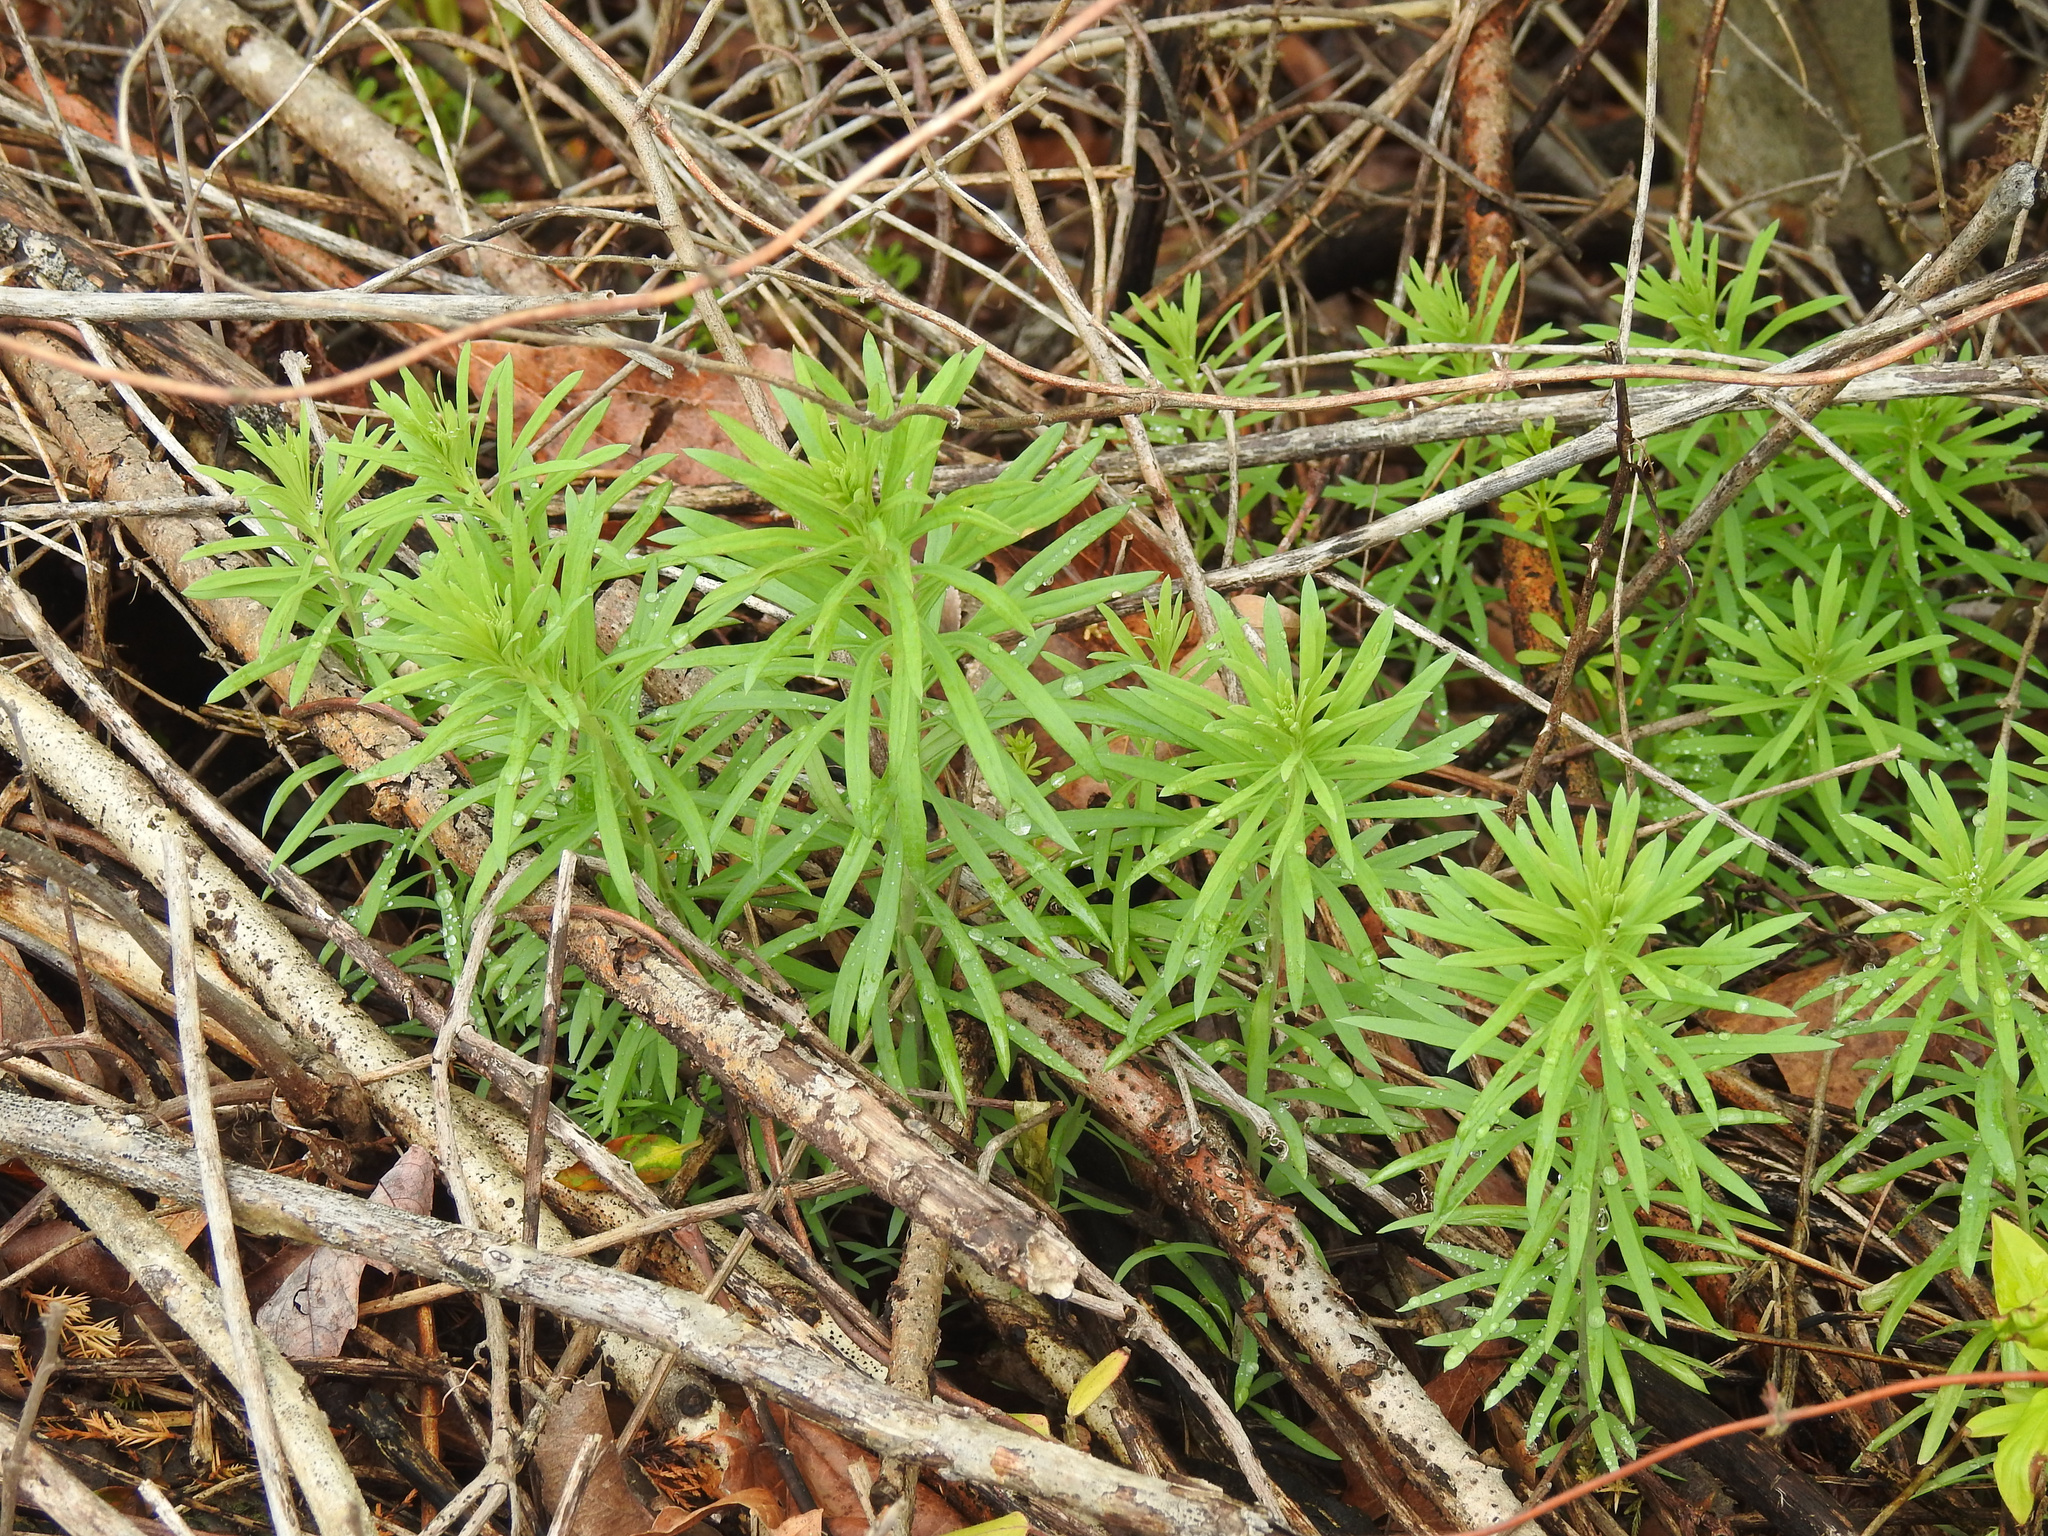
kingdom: Plantae
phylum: Tracheophyta
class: Magnoliopsida
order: Lamiales
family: Plantaginaceae
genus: Linaria
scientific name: Linaria vulgaris
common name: Butter and eggs
